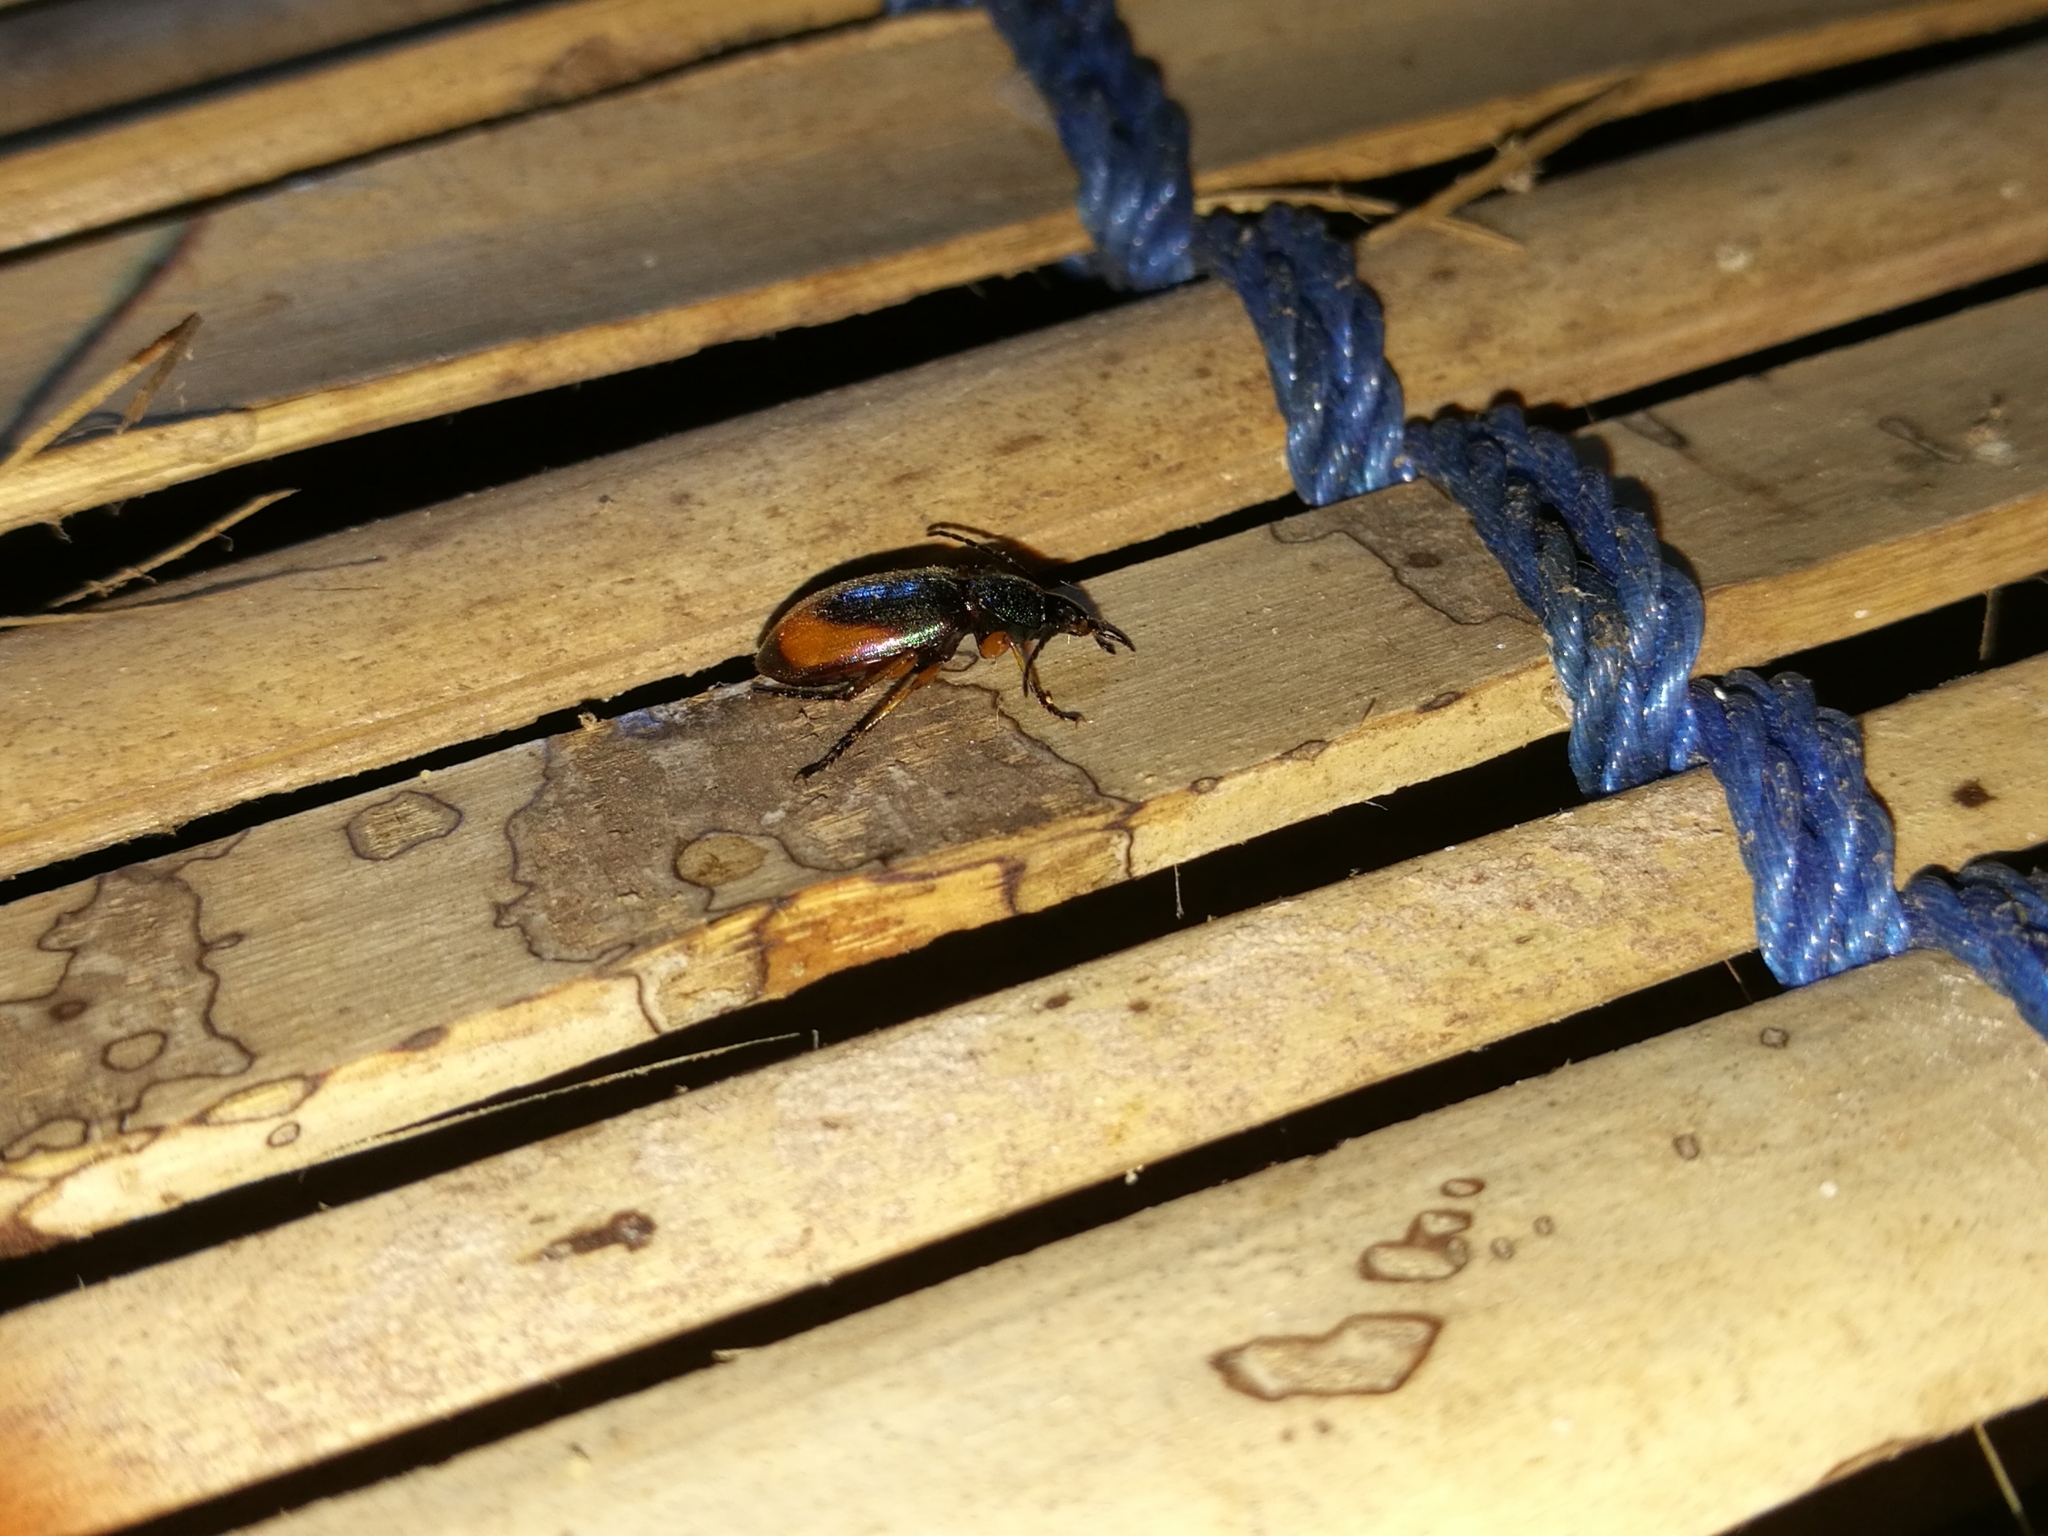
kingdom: Animalia
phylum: Arthropoda
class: Insecta
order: Coleoptera
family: Carabidae
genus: Chlaenius
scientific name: Chlaenius ammon
